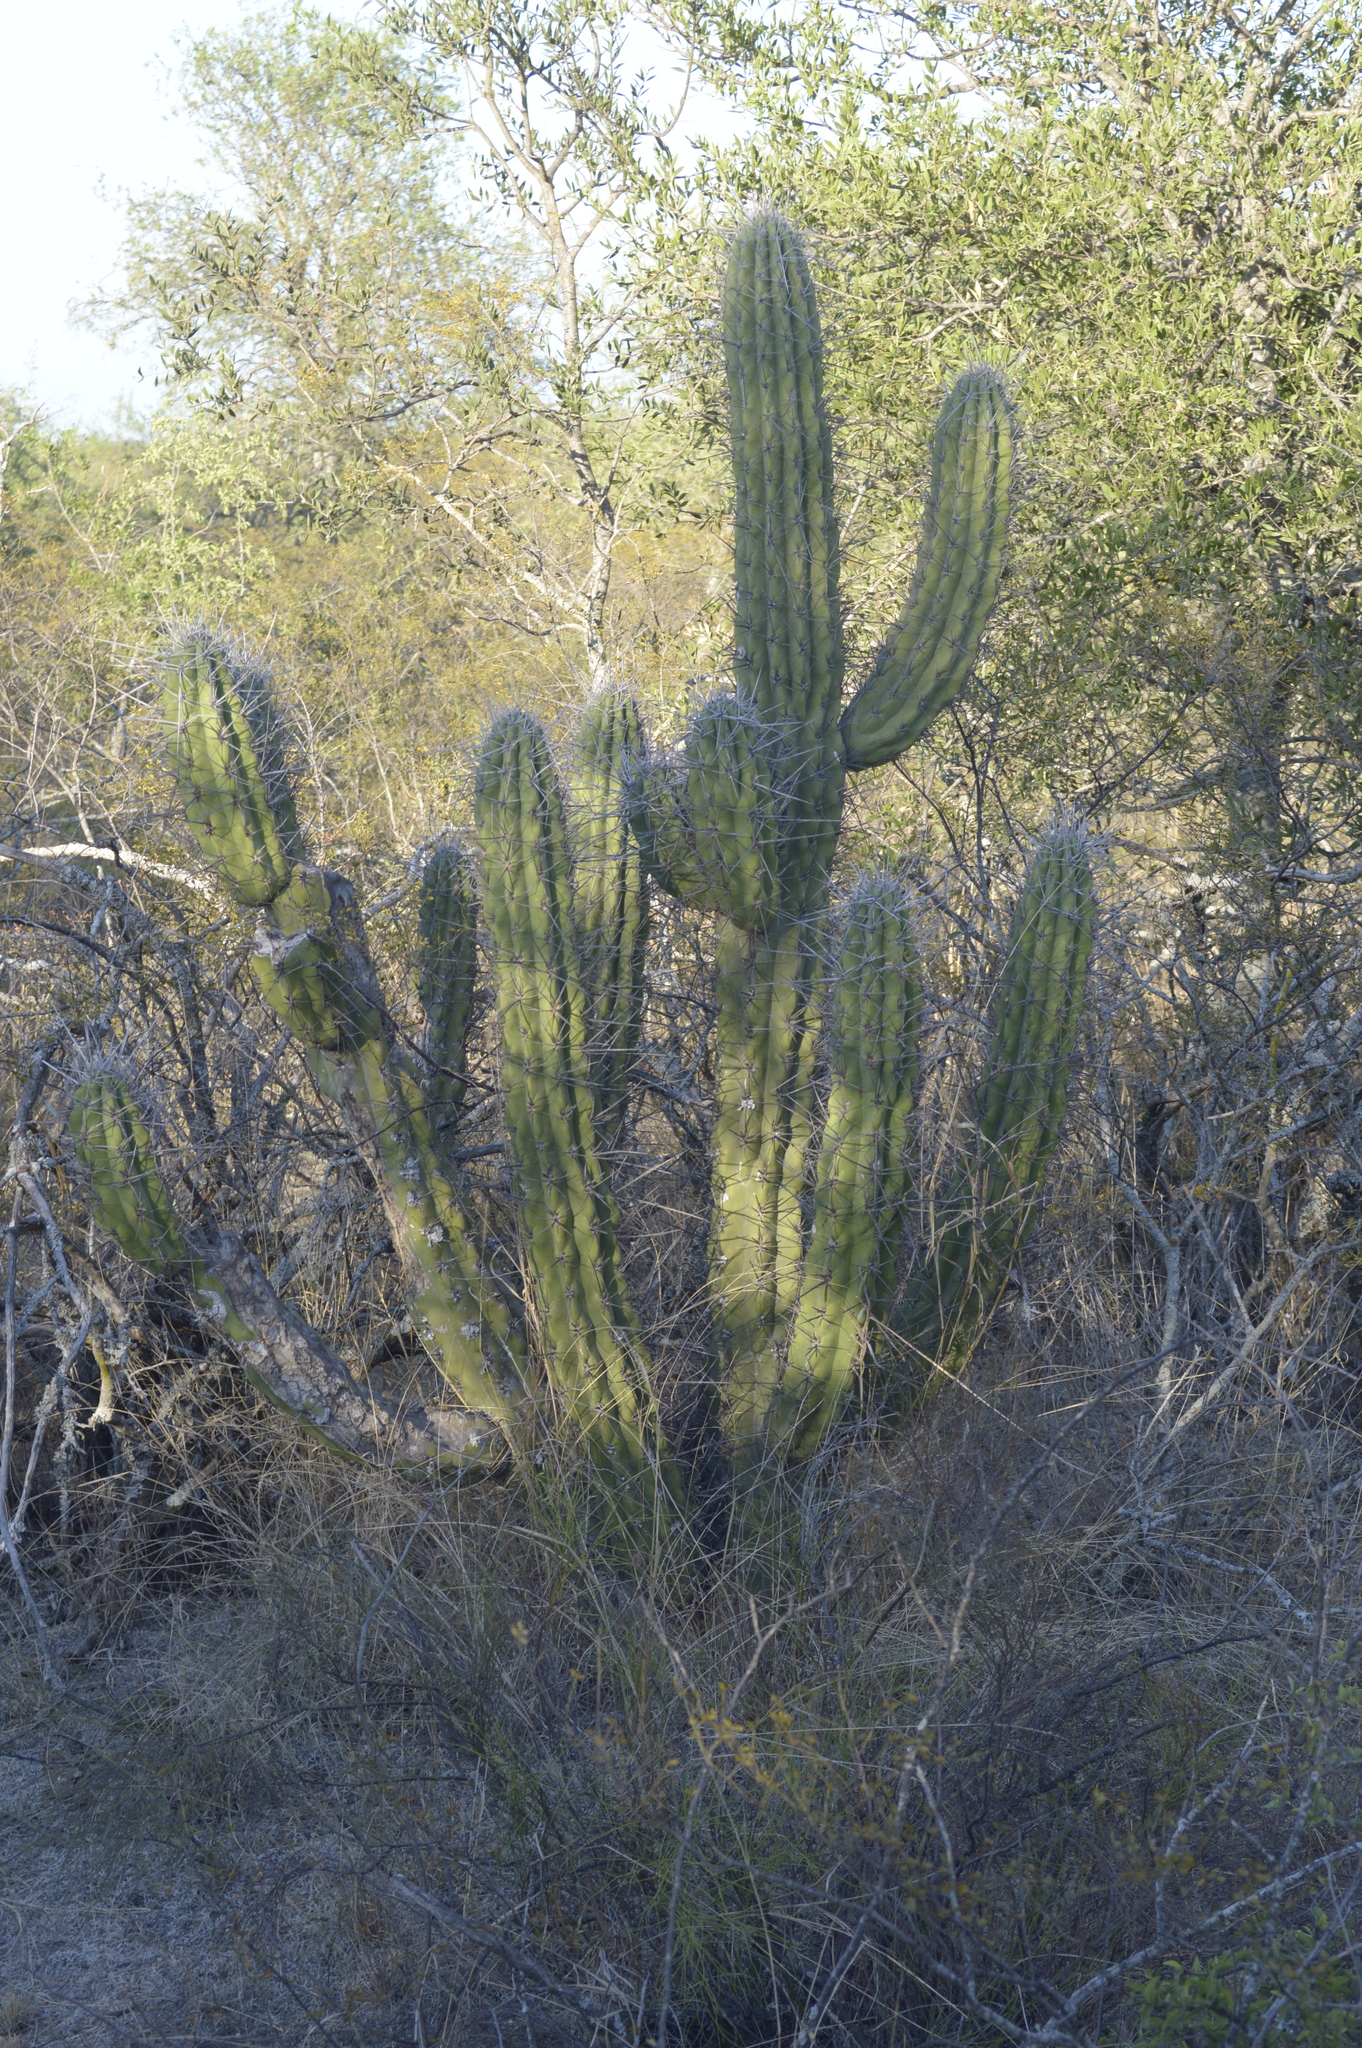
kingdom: Plantae
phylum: Tracheophyta
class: Magnoliopsida
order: Caryophyllales
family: Cactaceae
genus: Stetsonia
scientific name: Stetsonia coryne
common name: Toothpick cactus
